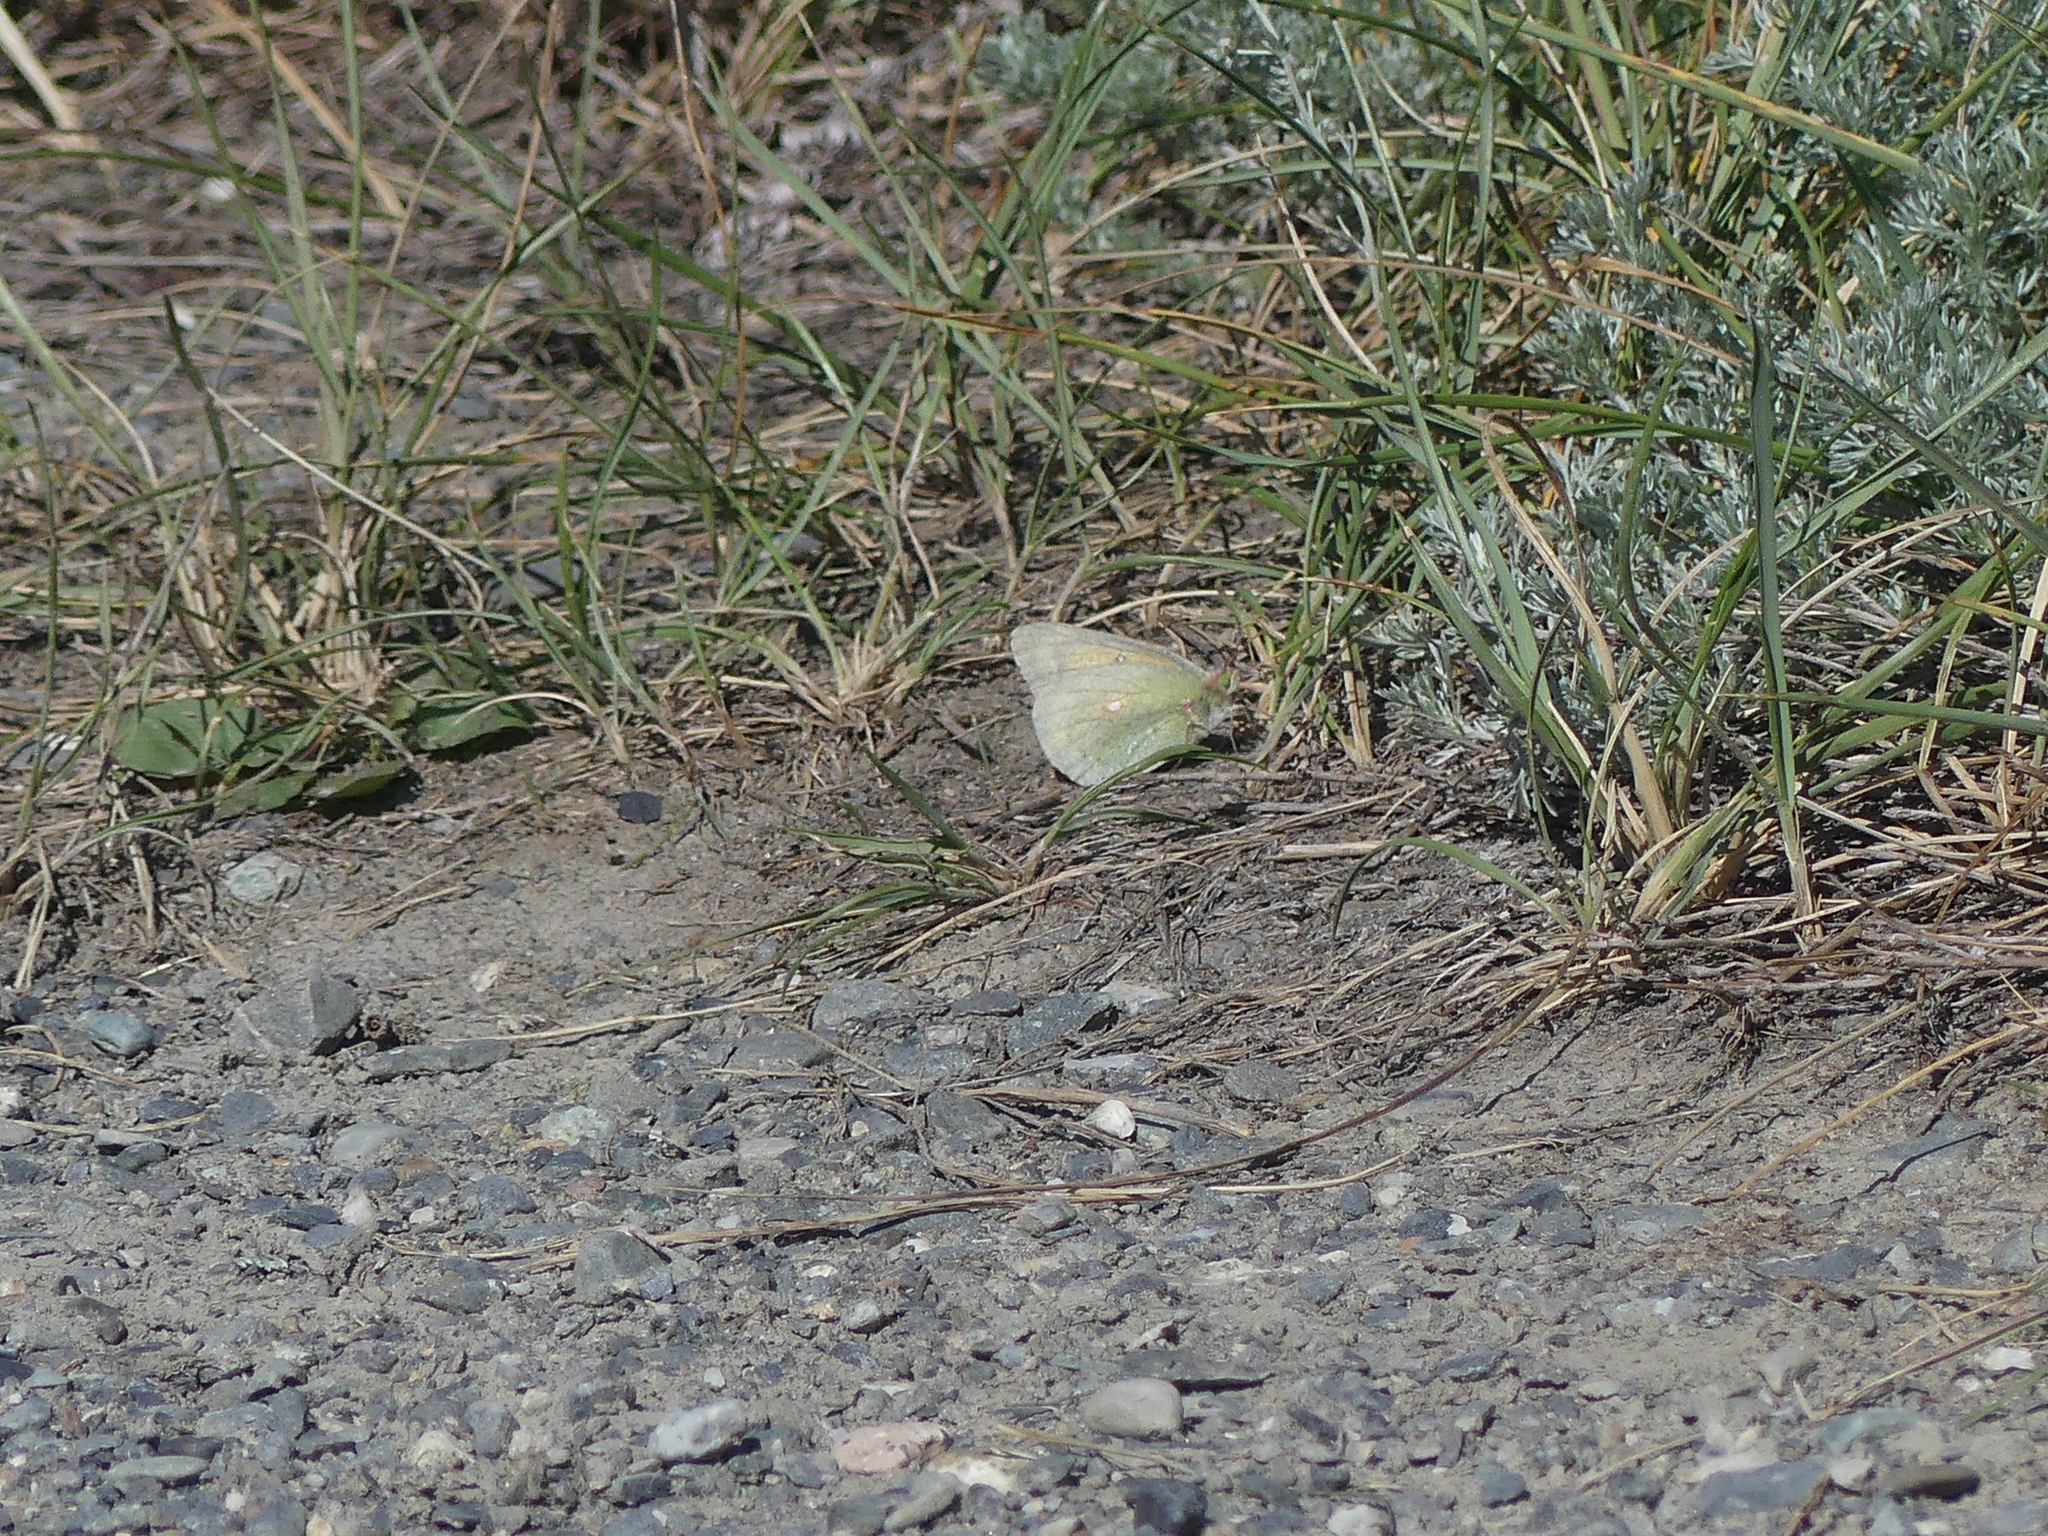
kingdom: Animalia
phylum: Arthropoda
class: Insecta
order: Lepidoptera
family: Pieridae
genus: Colias
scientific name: Colias christina
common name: Christina sulphur
